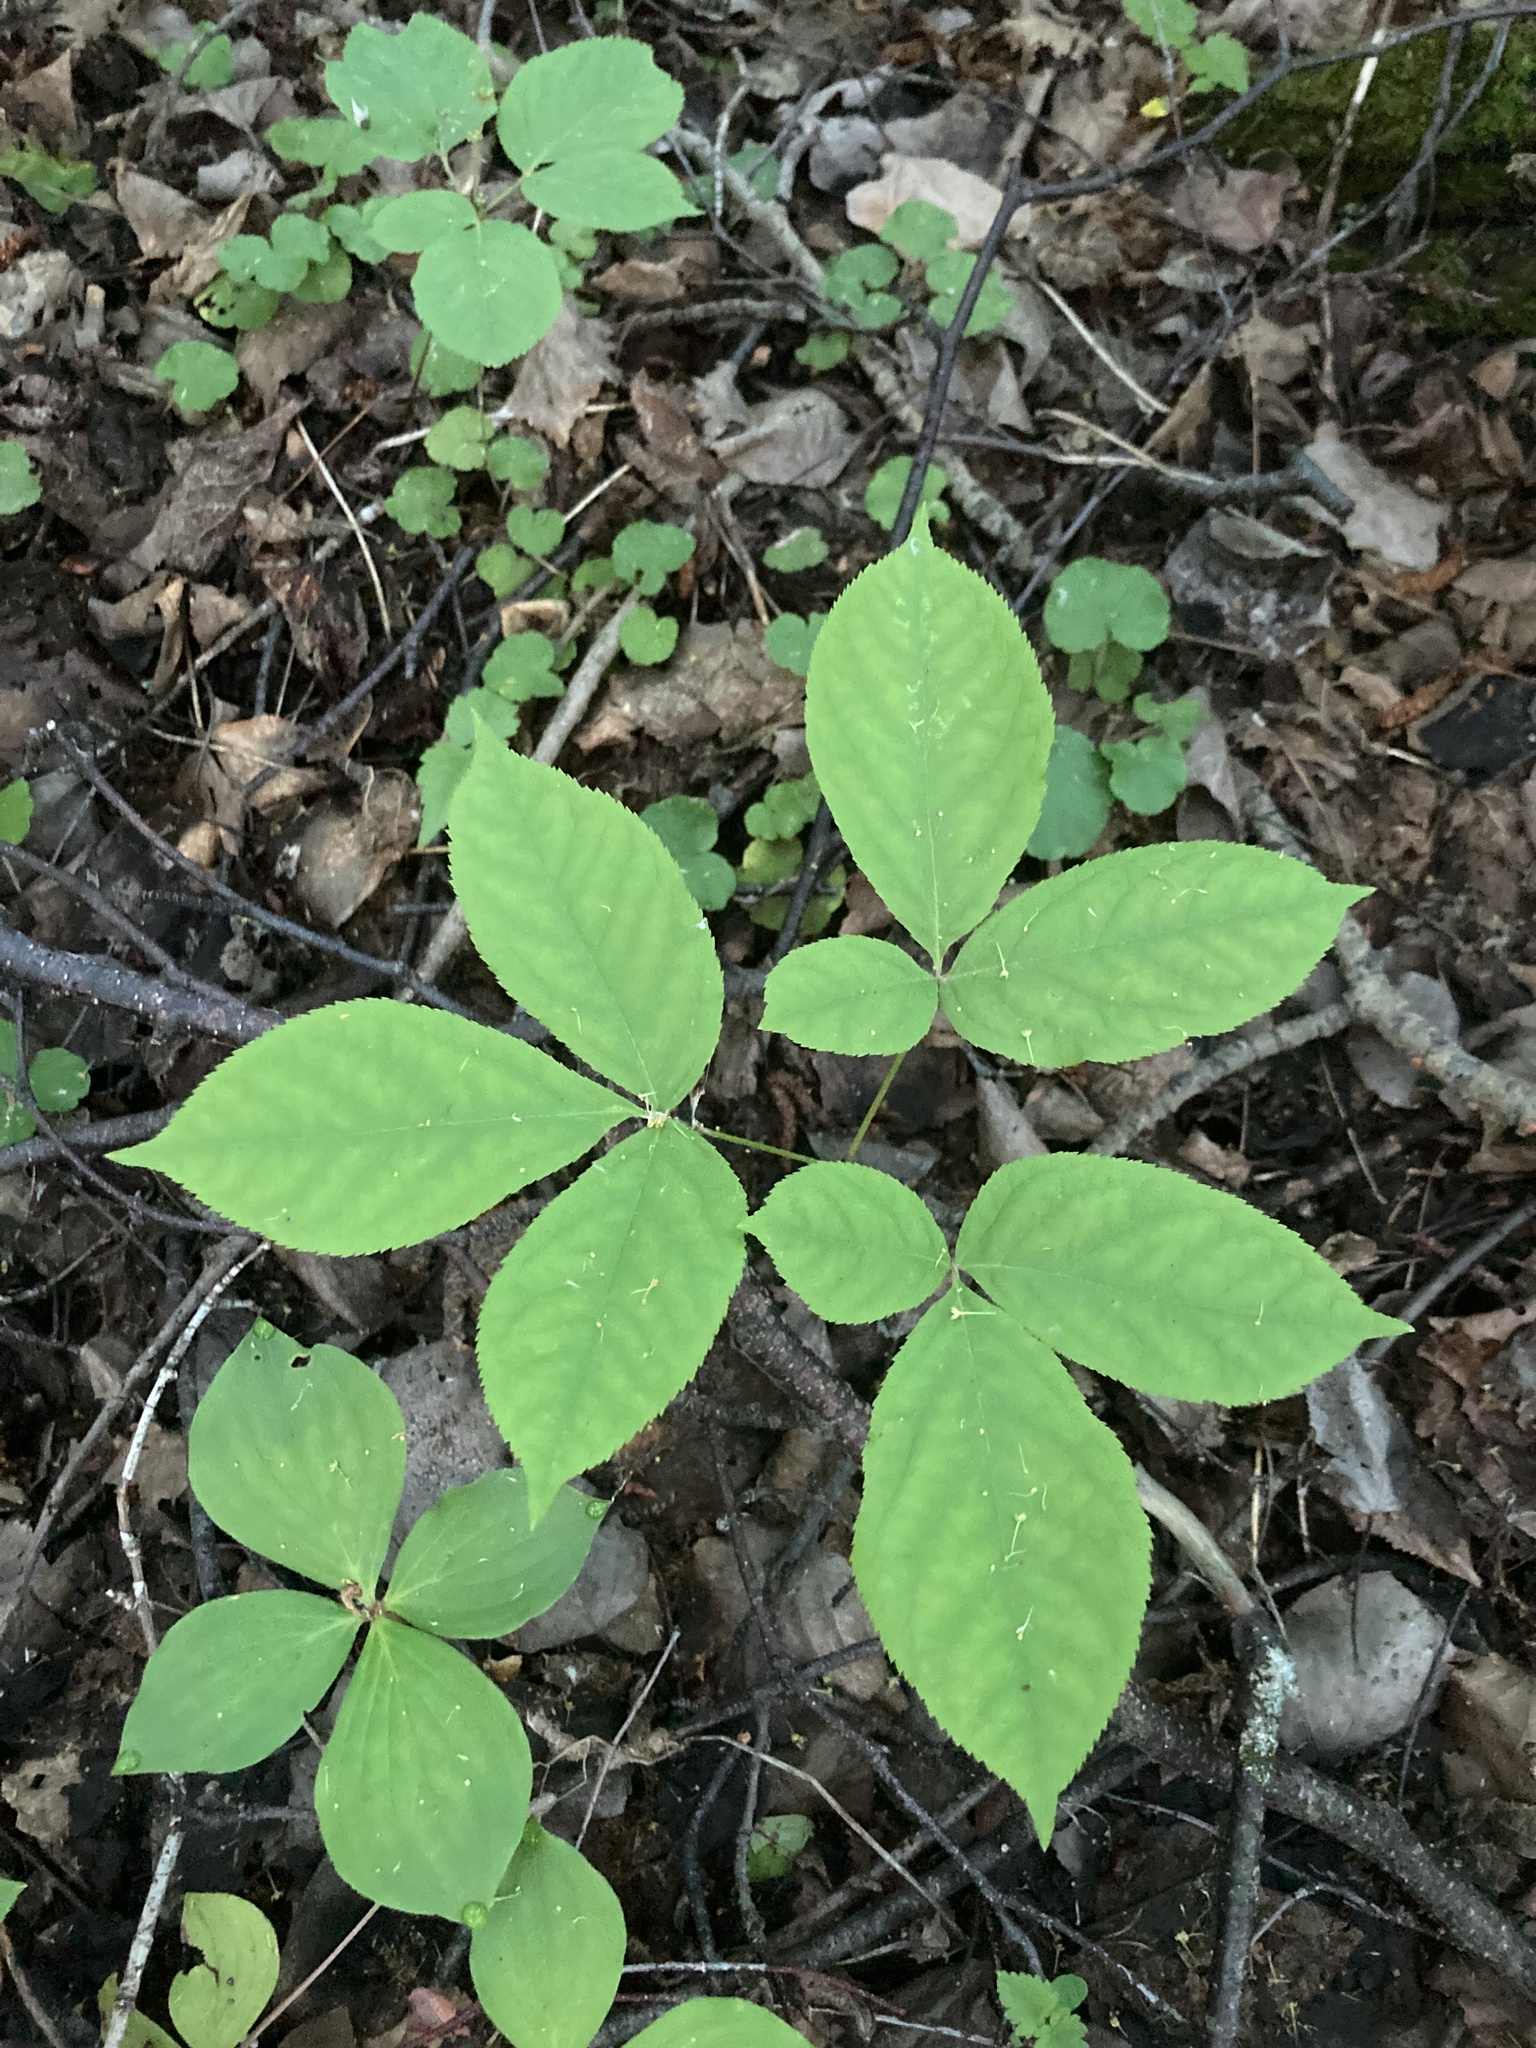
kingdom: Plantae
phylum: Tracheophyta
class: Magnoliopsida
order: Apiales
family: Araliaceae
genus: Aralia
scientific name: Aralia nudicaulis
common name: Wild sarsaparilla
